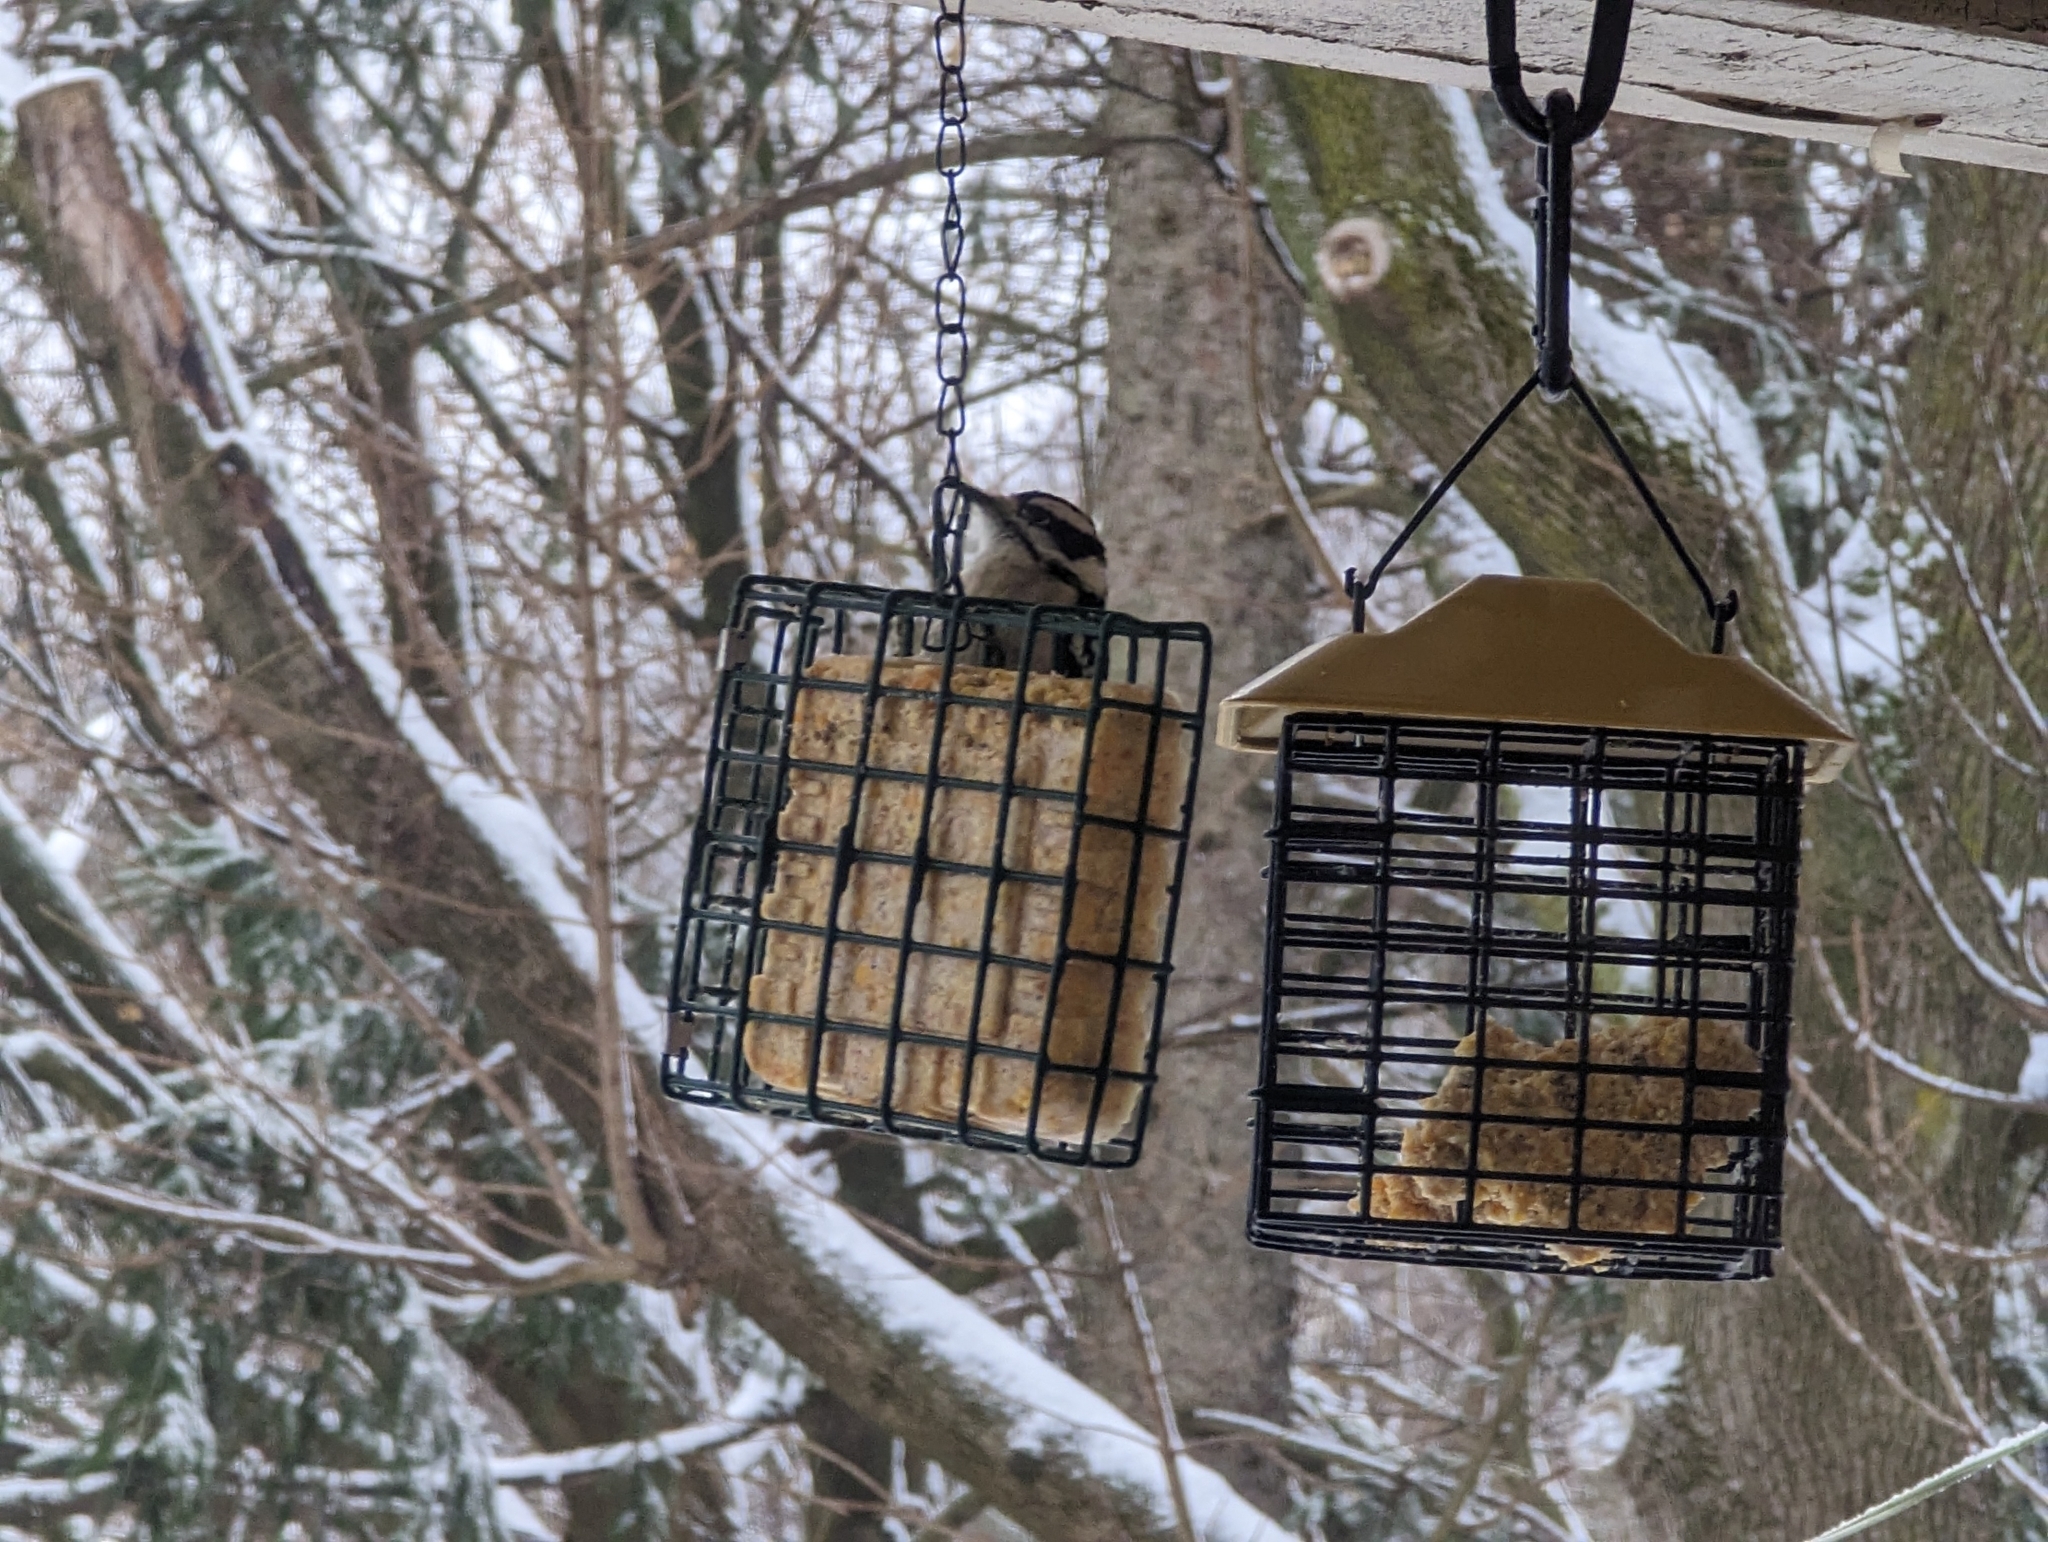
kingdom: Animalia
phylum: Chordata
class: Aves
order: Piciformes
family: Picidae
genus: Dryobates
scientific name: Dryobates pubescens
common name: Downy woodpecker
